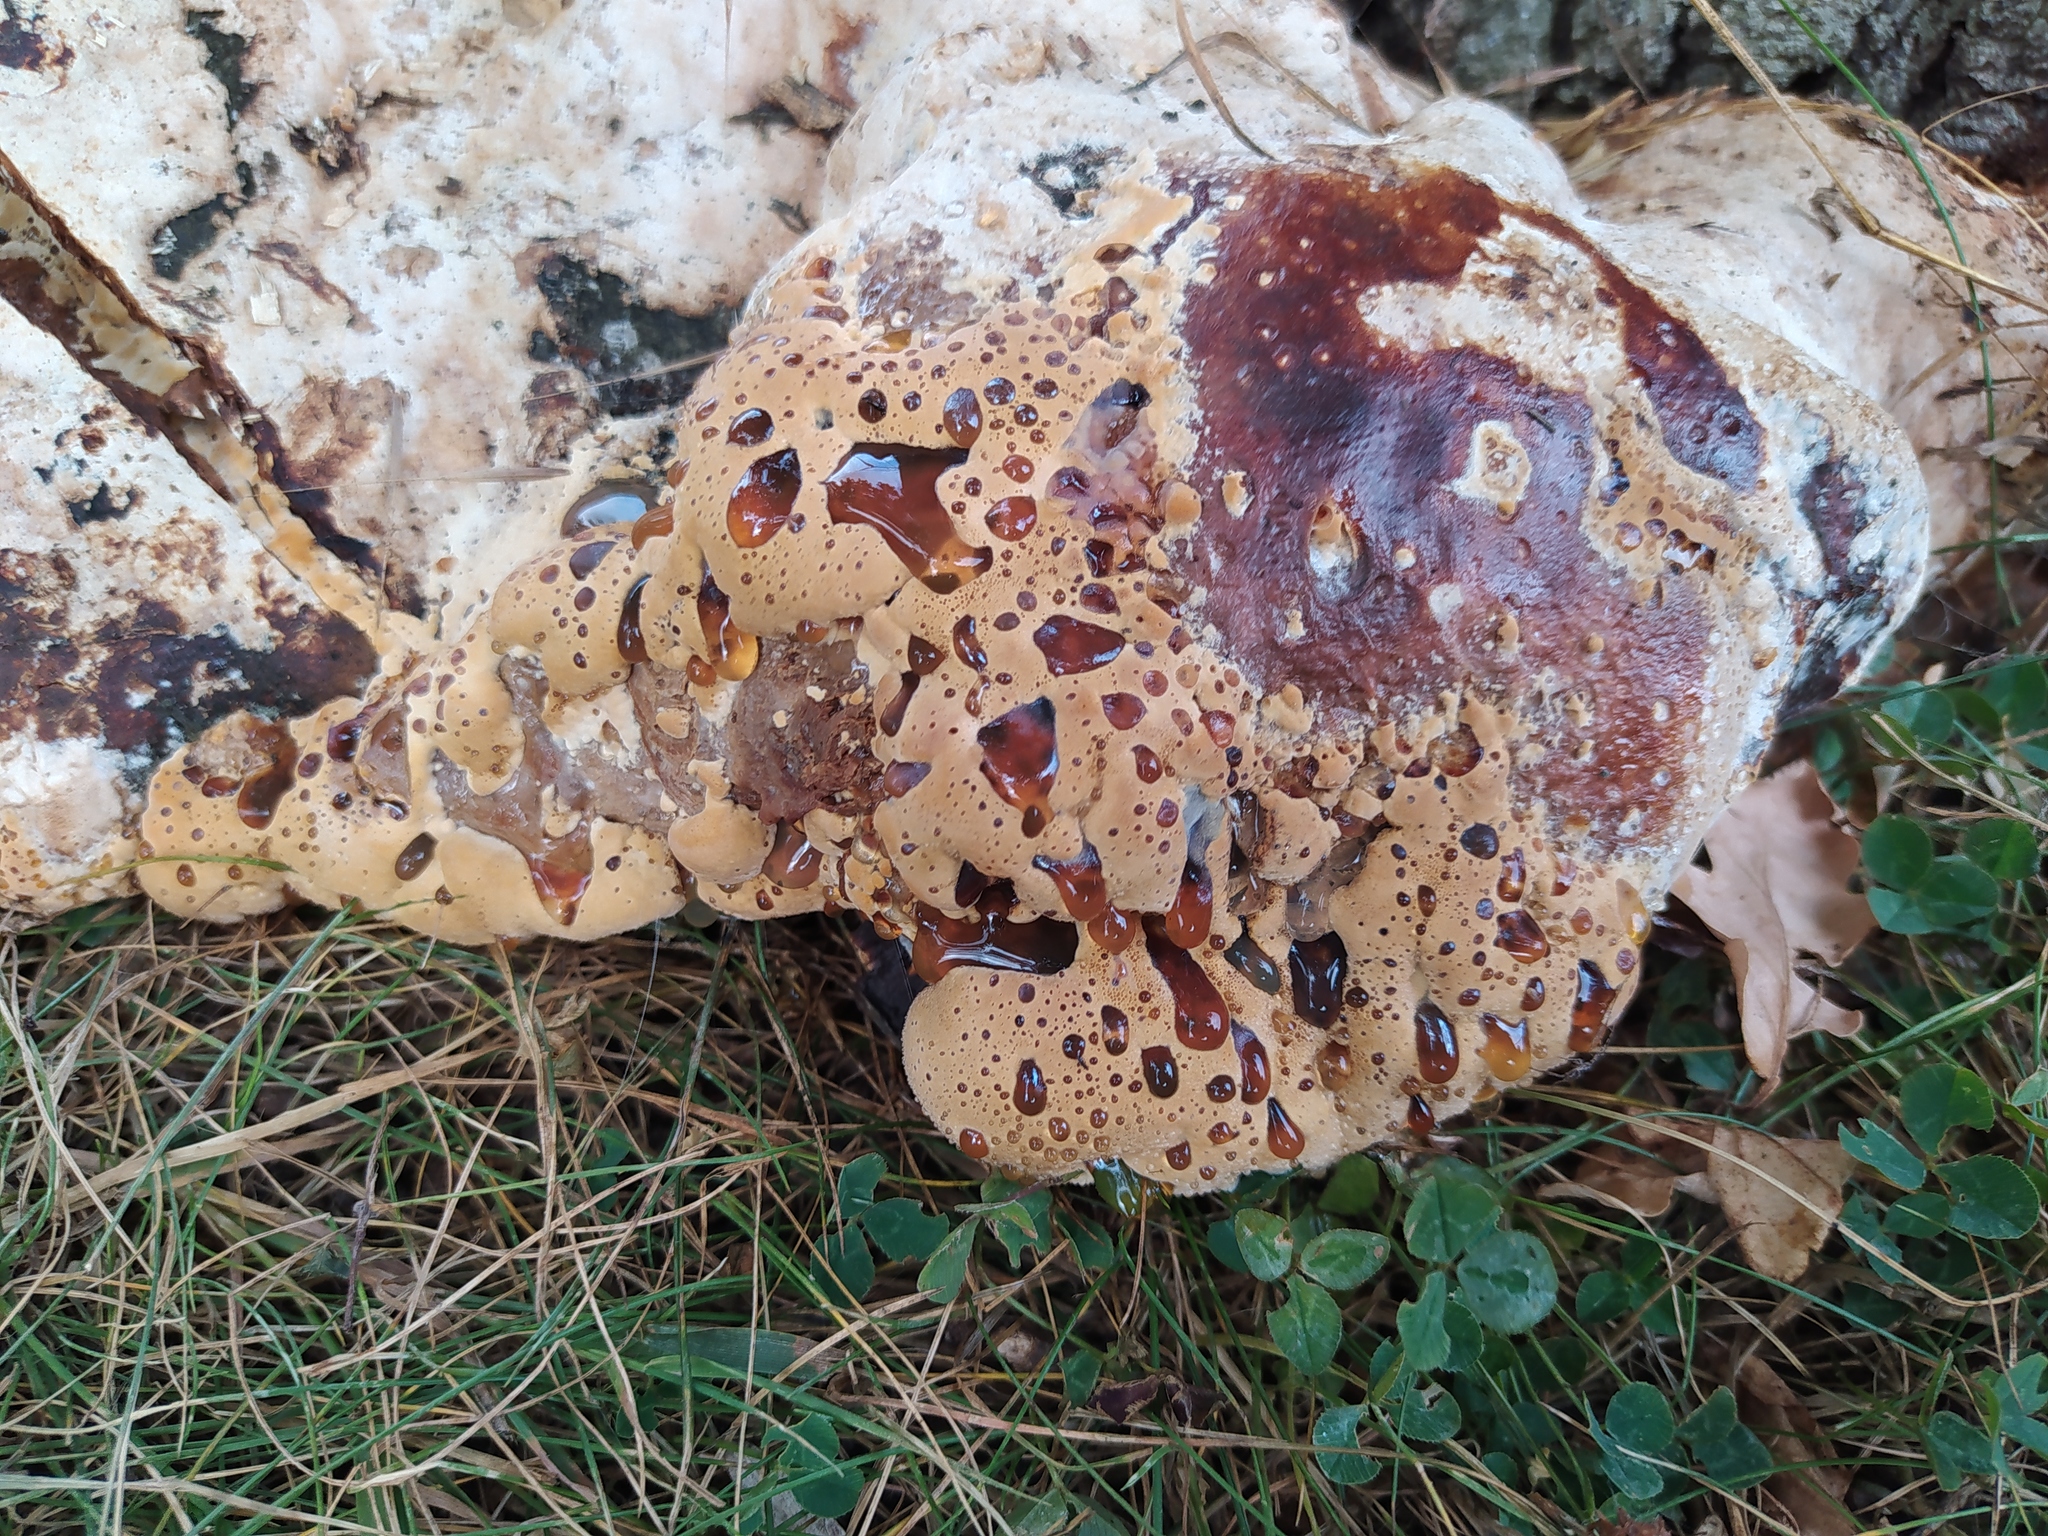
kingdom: Fungi
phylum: Basidiomycota
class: Agaricomycetes
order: Hymenochaetales
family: Hymenochaetaceae
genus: Pseudoinonotus
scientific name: Pseudoinonotus dryadeus
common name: Oak bracket
